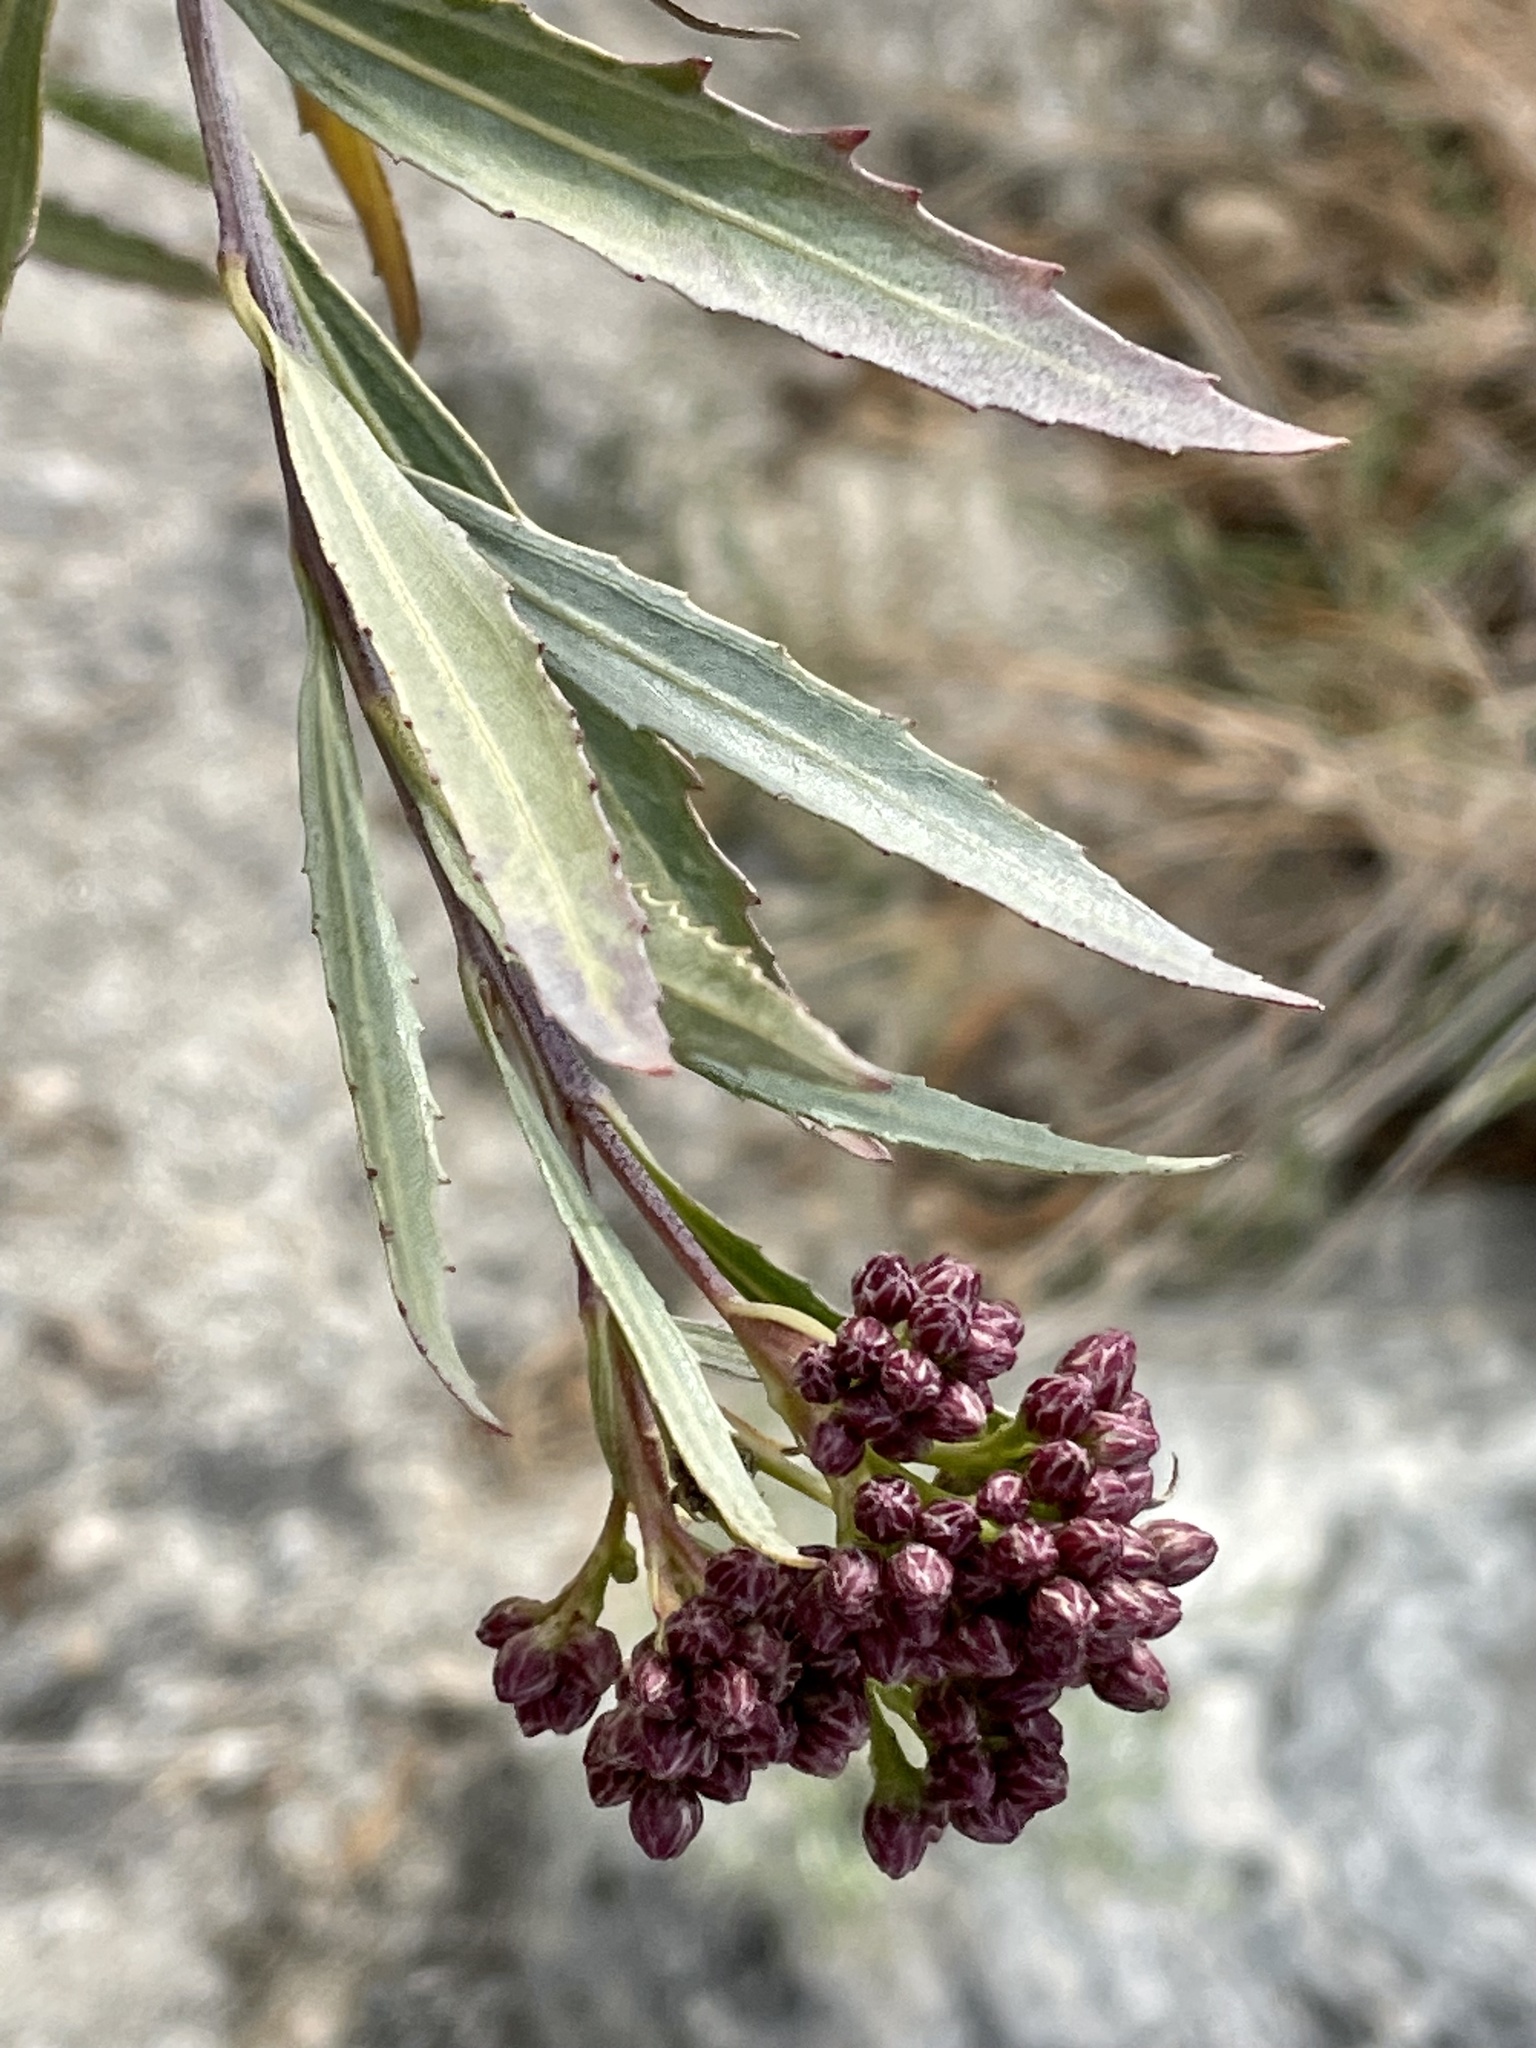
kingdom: Plantae
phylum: Tracheophyta
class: Magnoliopsida
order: Asterales
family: Asteraceae
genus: Baccharis
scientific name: Baccharis salicifolia
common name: Sticky baccharis
